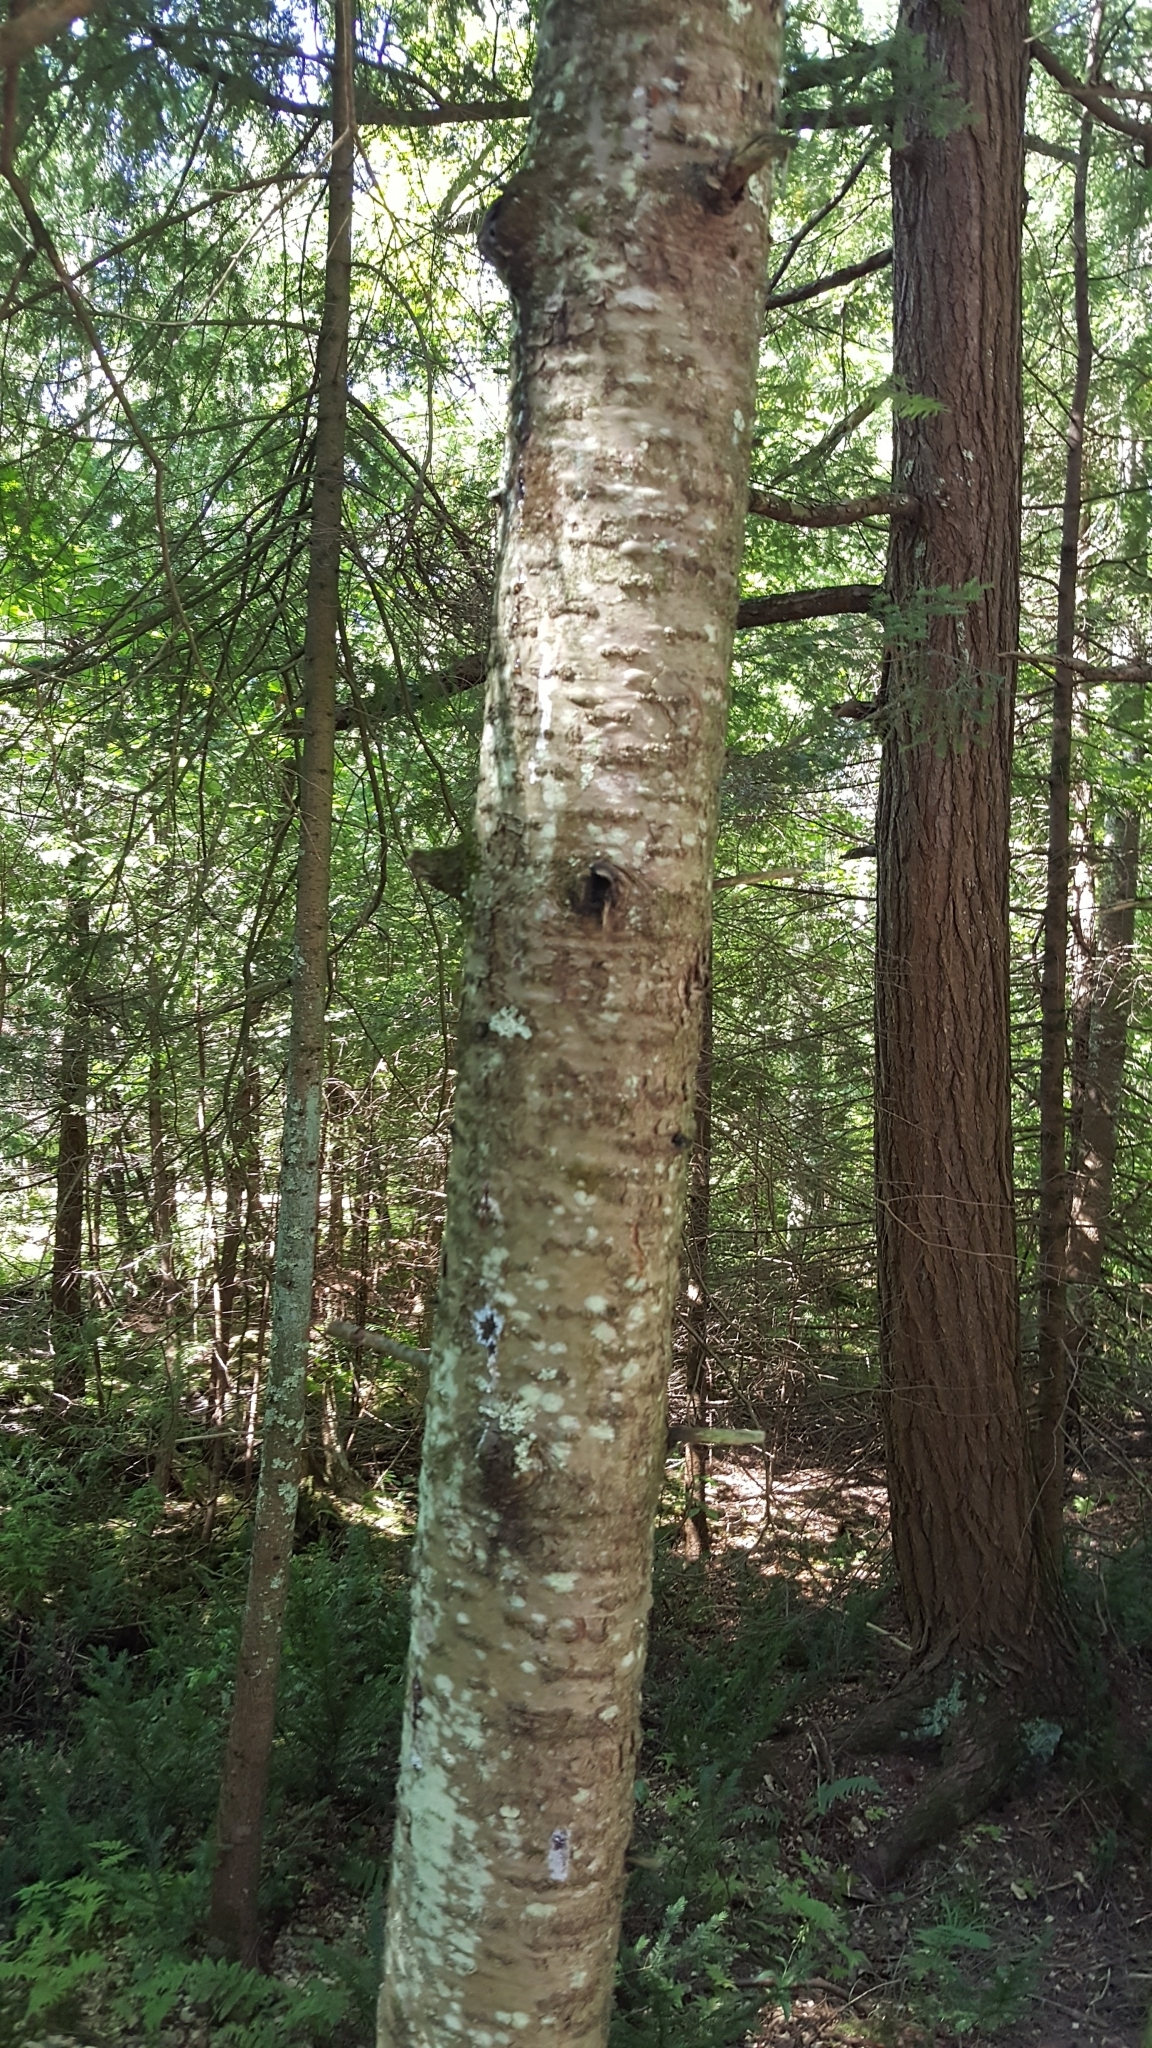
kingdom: Plantae
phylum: Tracheophyta
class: Pinopsida
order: Pinales
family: Pinaceae
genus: Abies
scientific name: Abies balsamea
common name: Balsam fir
